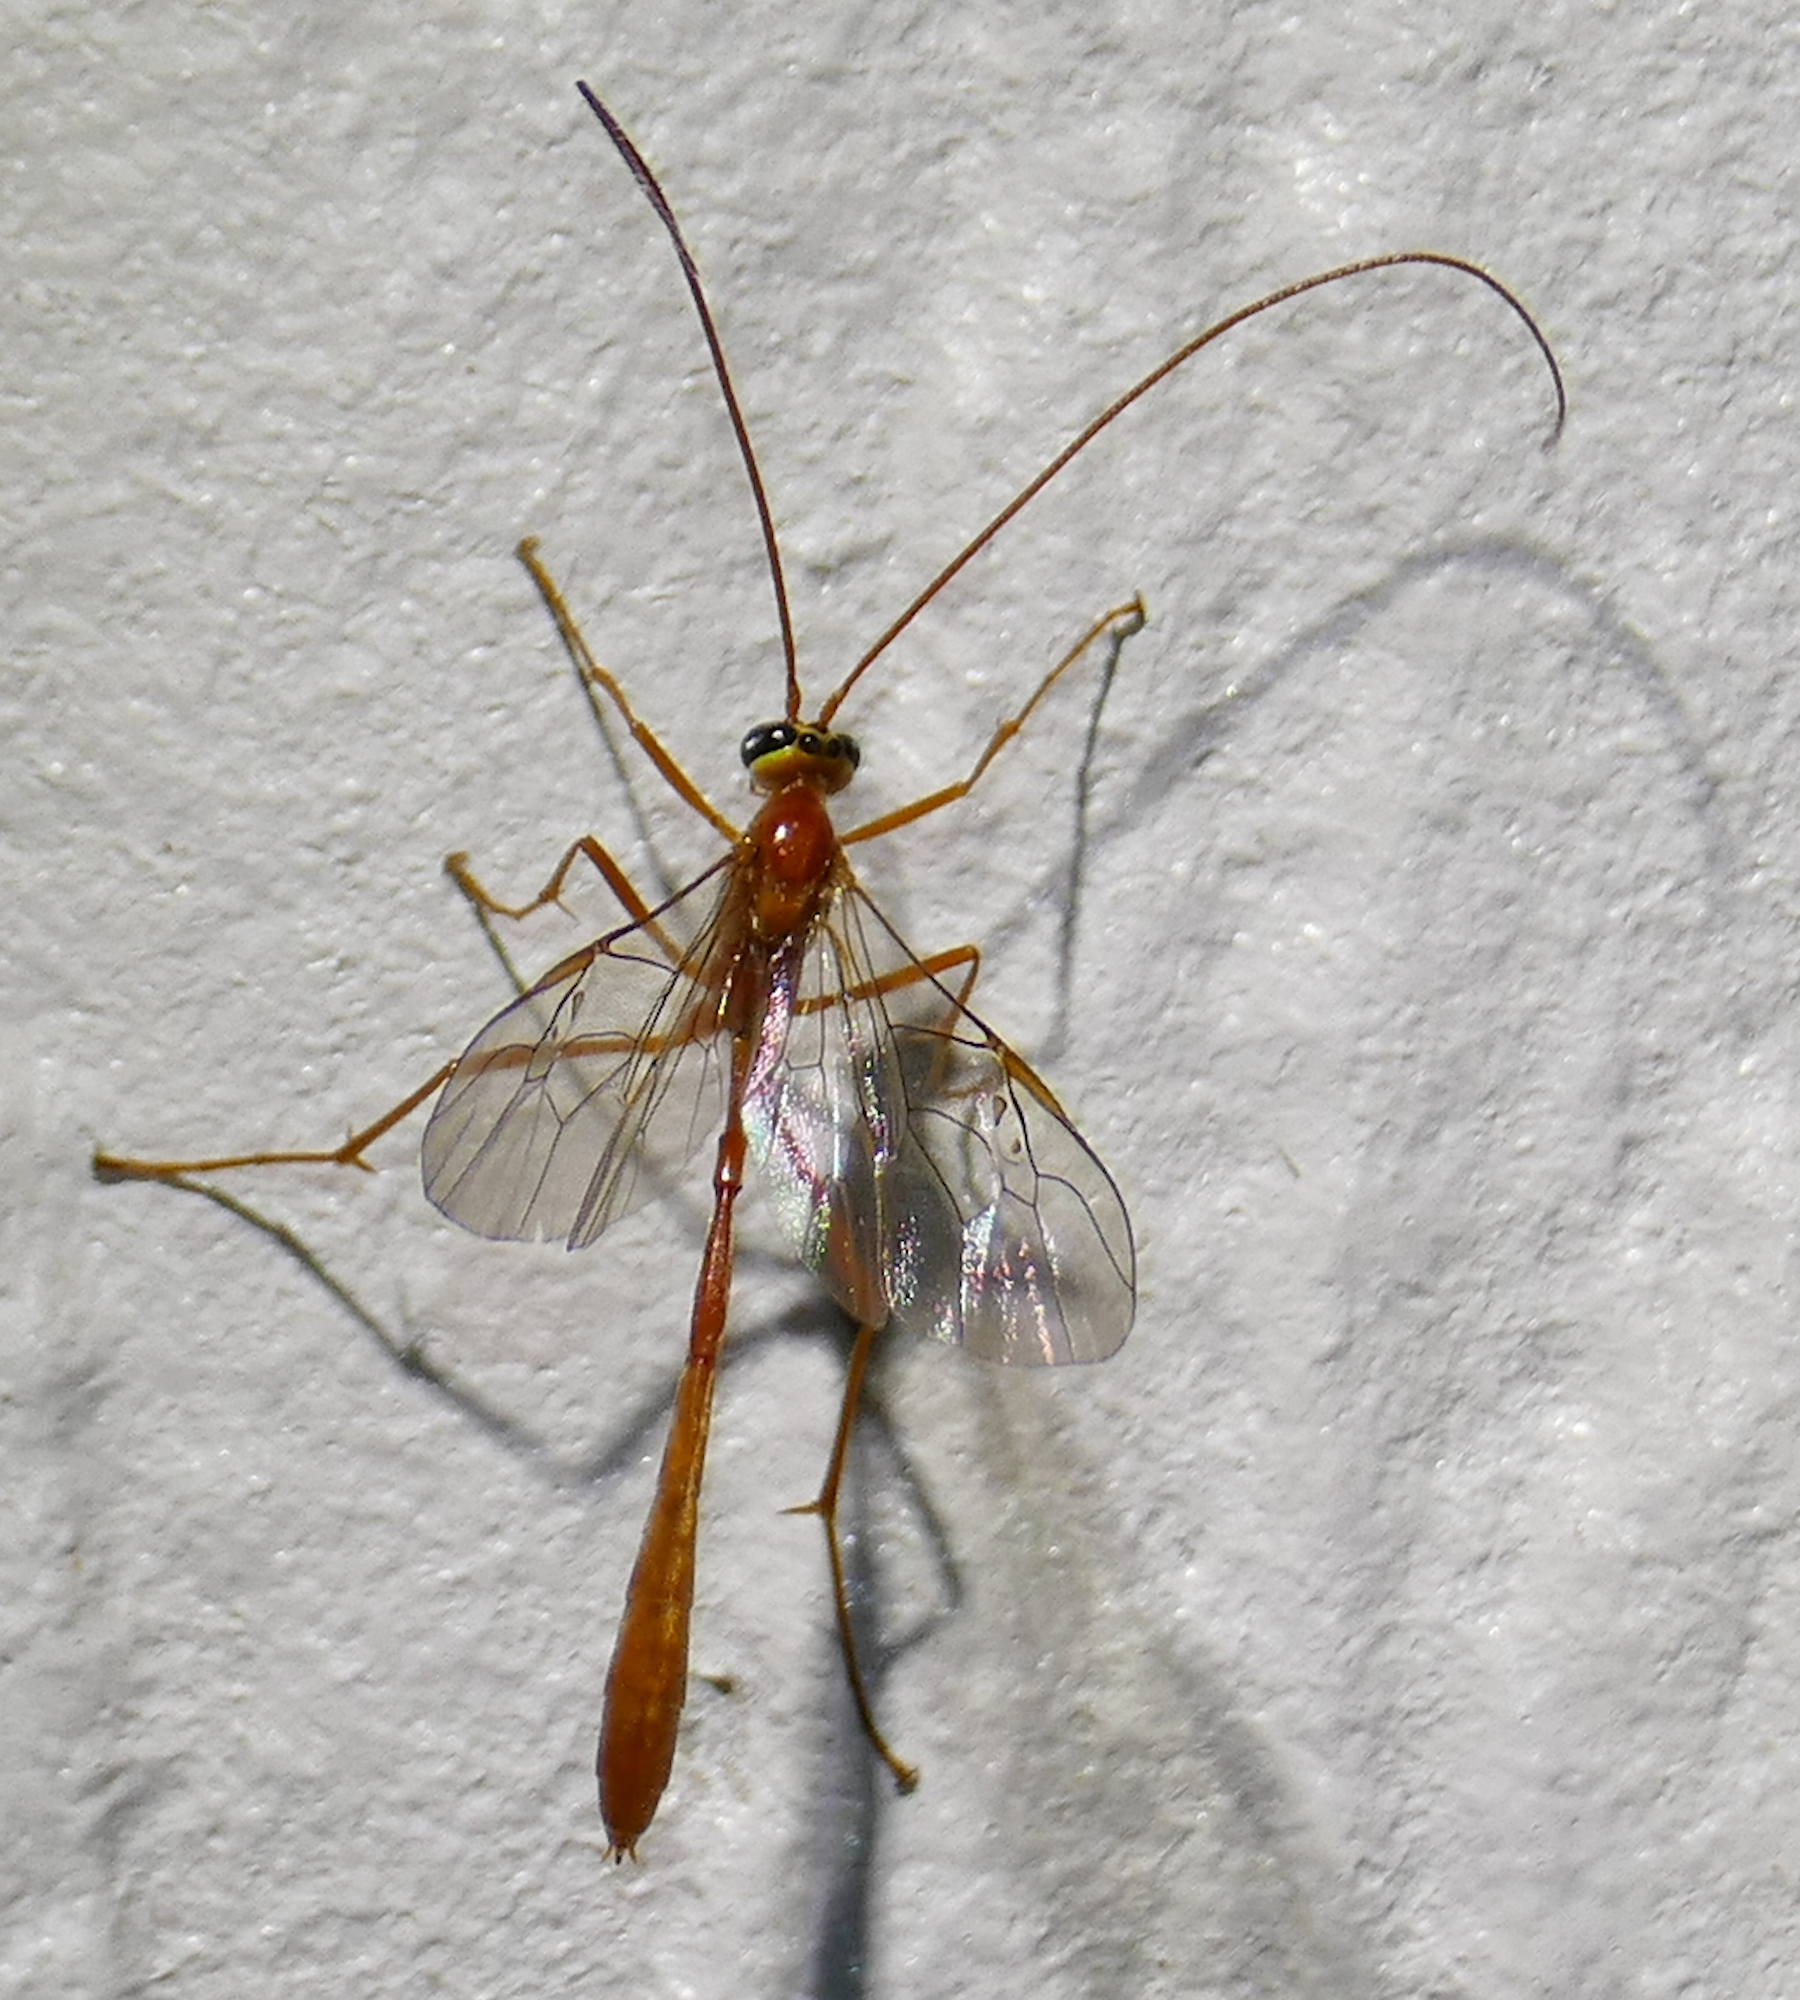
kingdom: Animalia
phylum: Arthropoda
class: Insecta
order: Hymenoptera
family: Ichneumonidae
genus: Enicospilus
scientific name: Enicospilus purgatus
